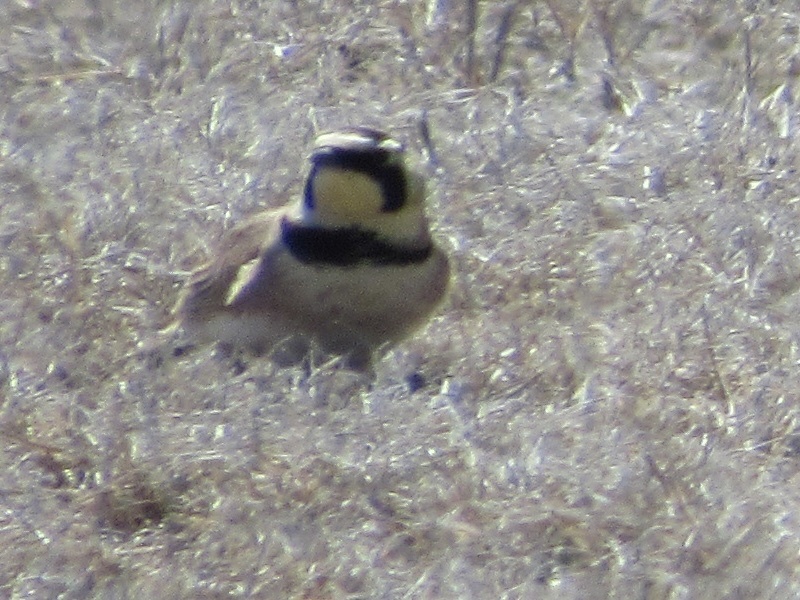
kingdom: Animalia
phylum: Chordata
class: Aves
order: Passeriformes
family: Alaudidae
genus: Eremophila
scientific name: Eremophila alpestris
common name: Horned lark
